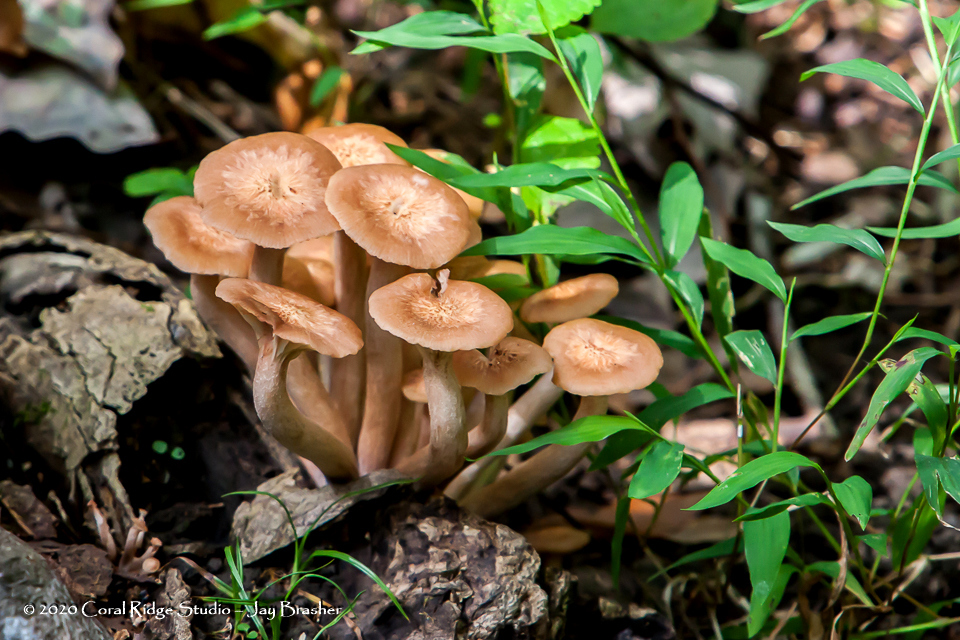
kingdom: Fungi
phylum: Basidiomycota
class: Agaricomycetes
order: Agaricales
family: Physalacriaceae
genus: Desarmillaria
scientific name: Desarmillaria caespitosa
